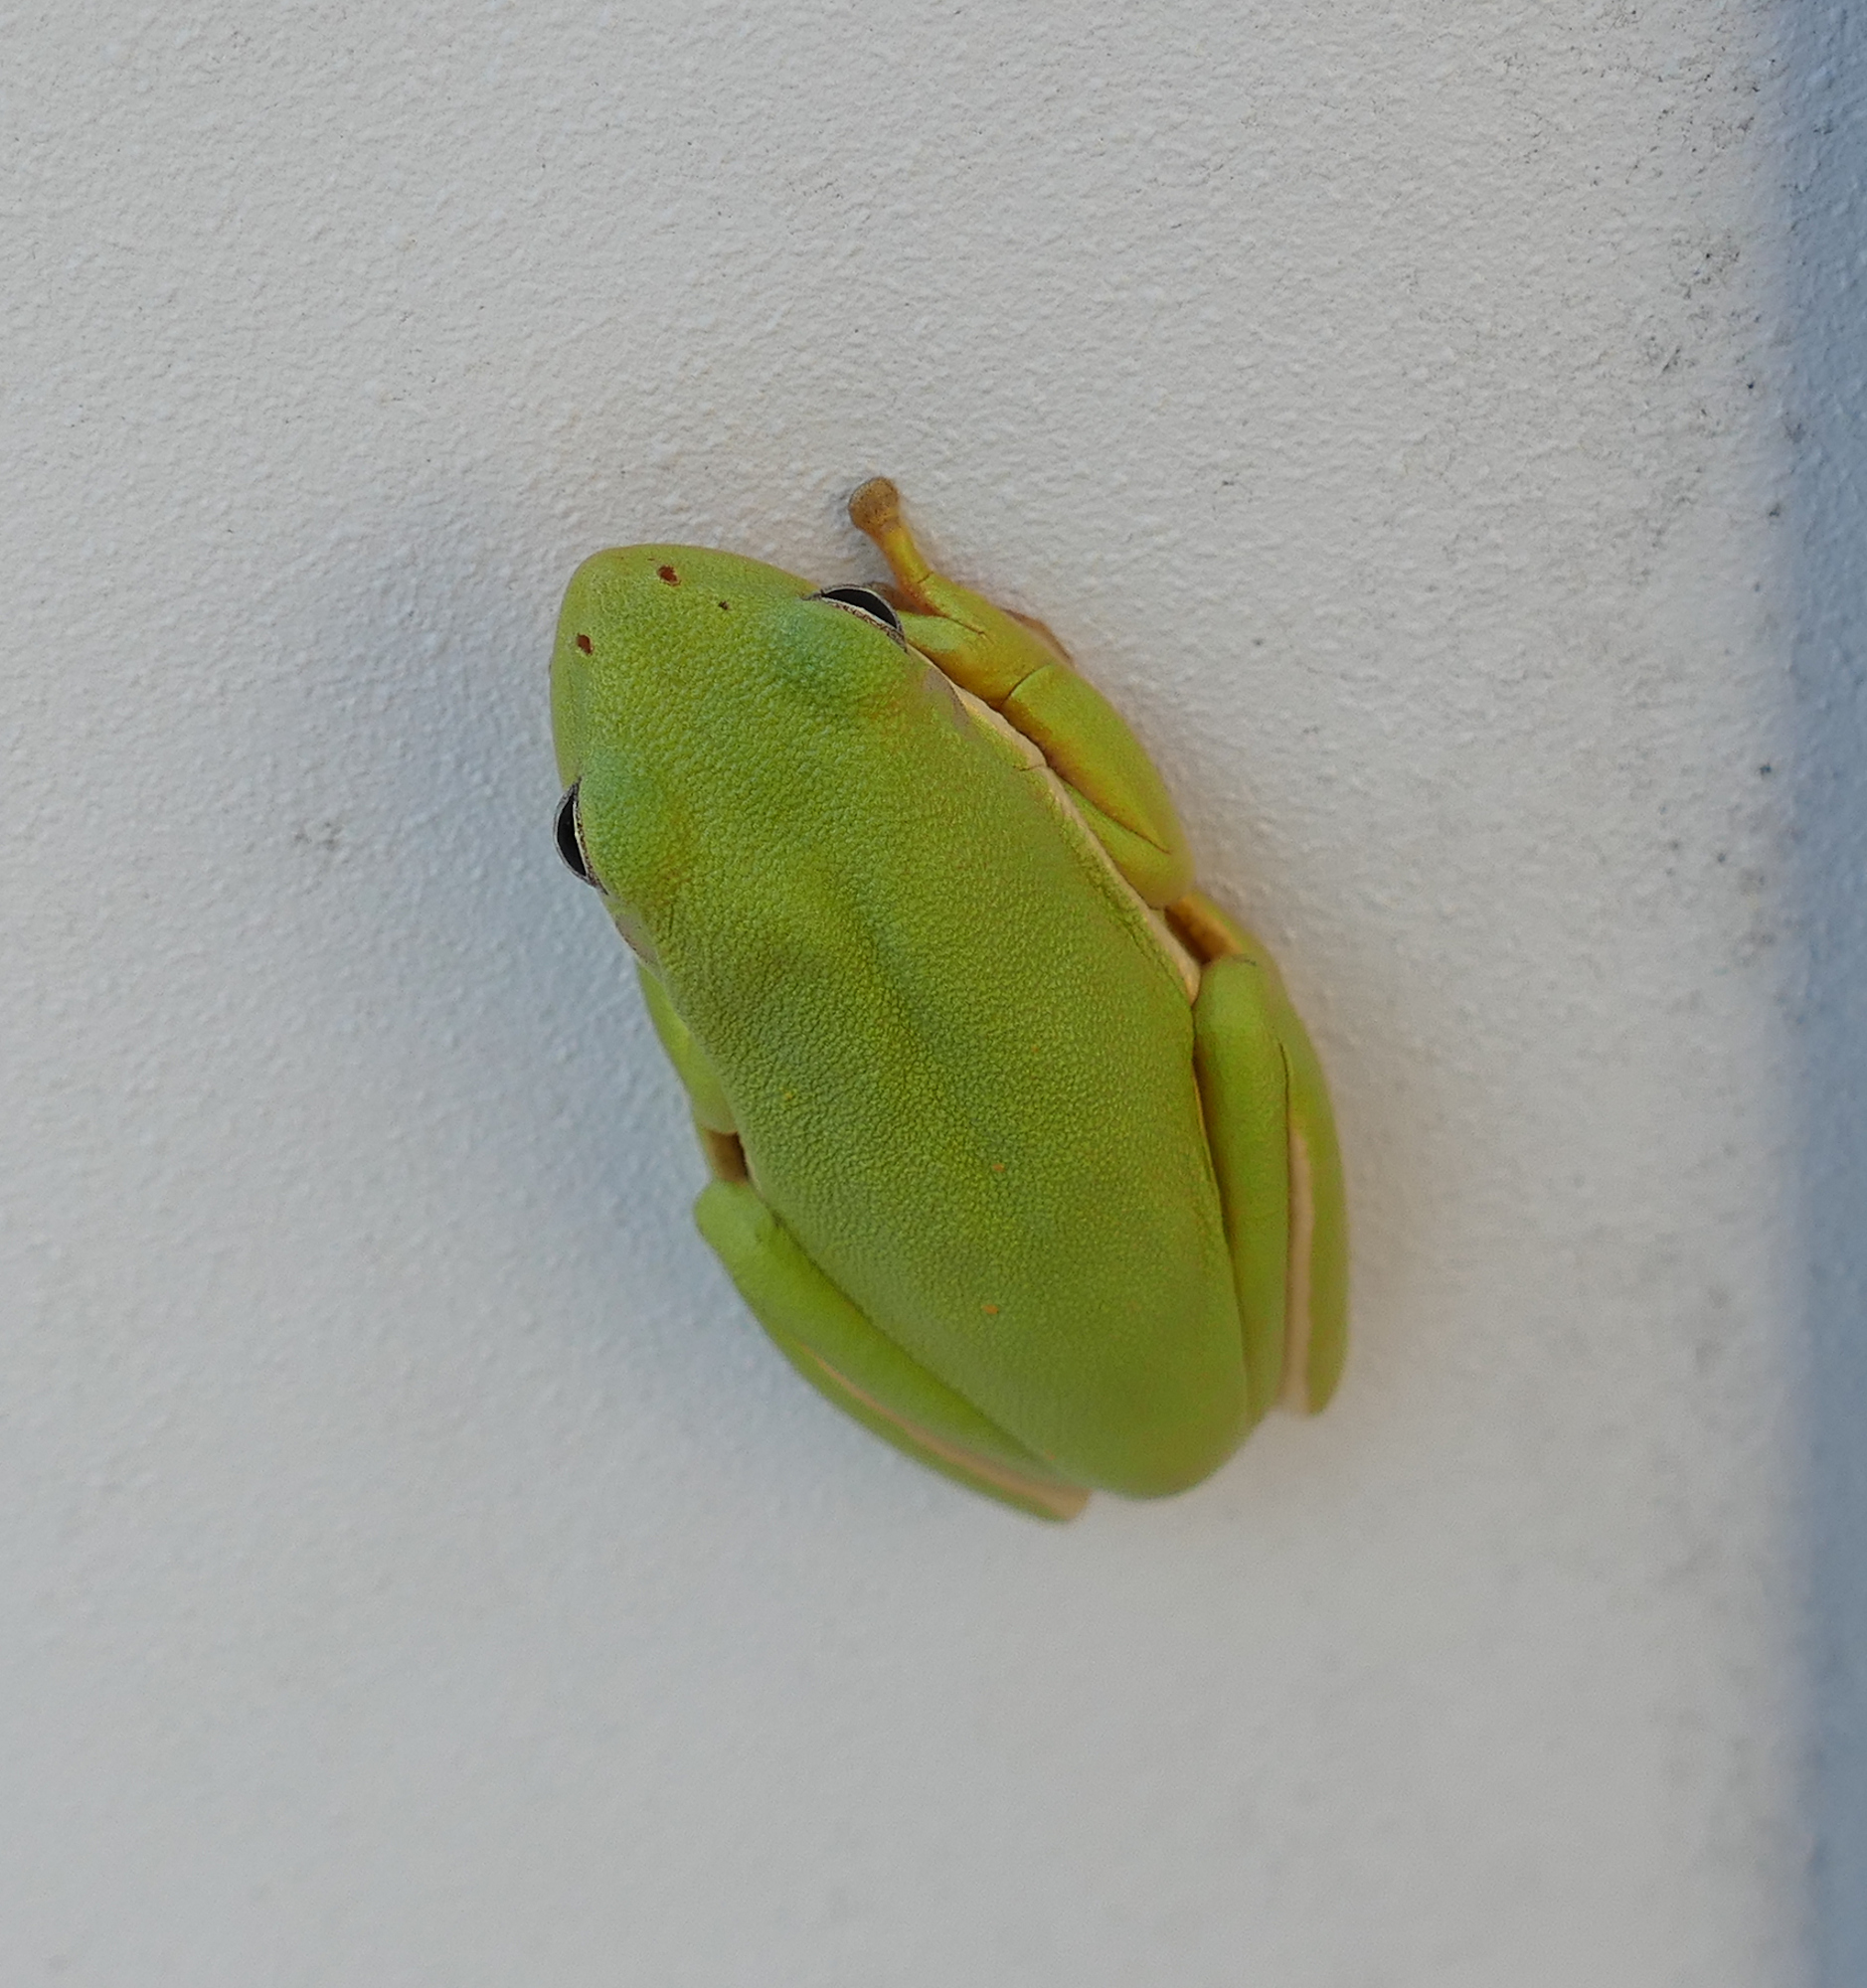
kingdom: Animalia
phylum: Chordata
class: Amphibia
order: Anura
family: Hylidae
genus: Dryophytes
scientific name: Dryophytes cinereus
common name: Green treefrog
